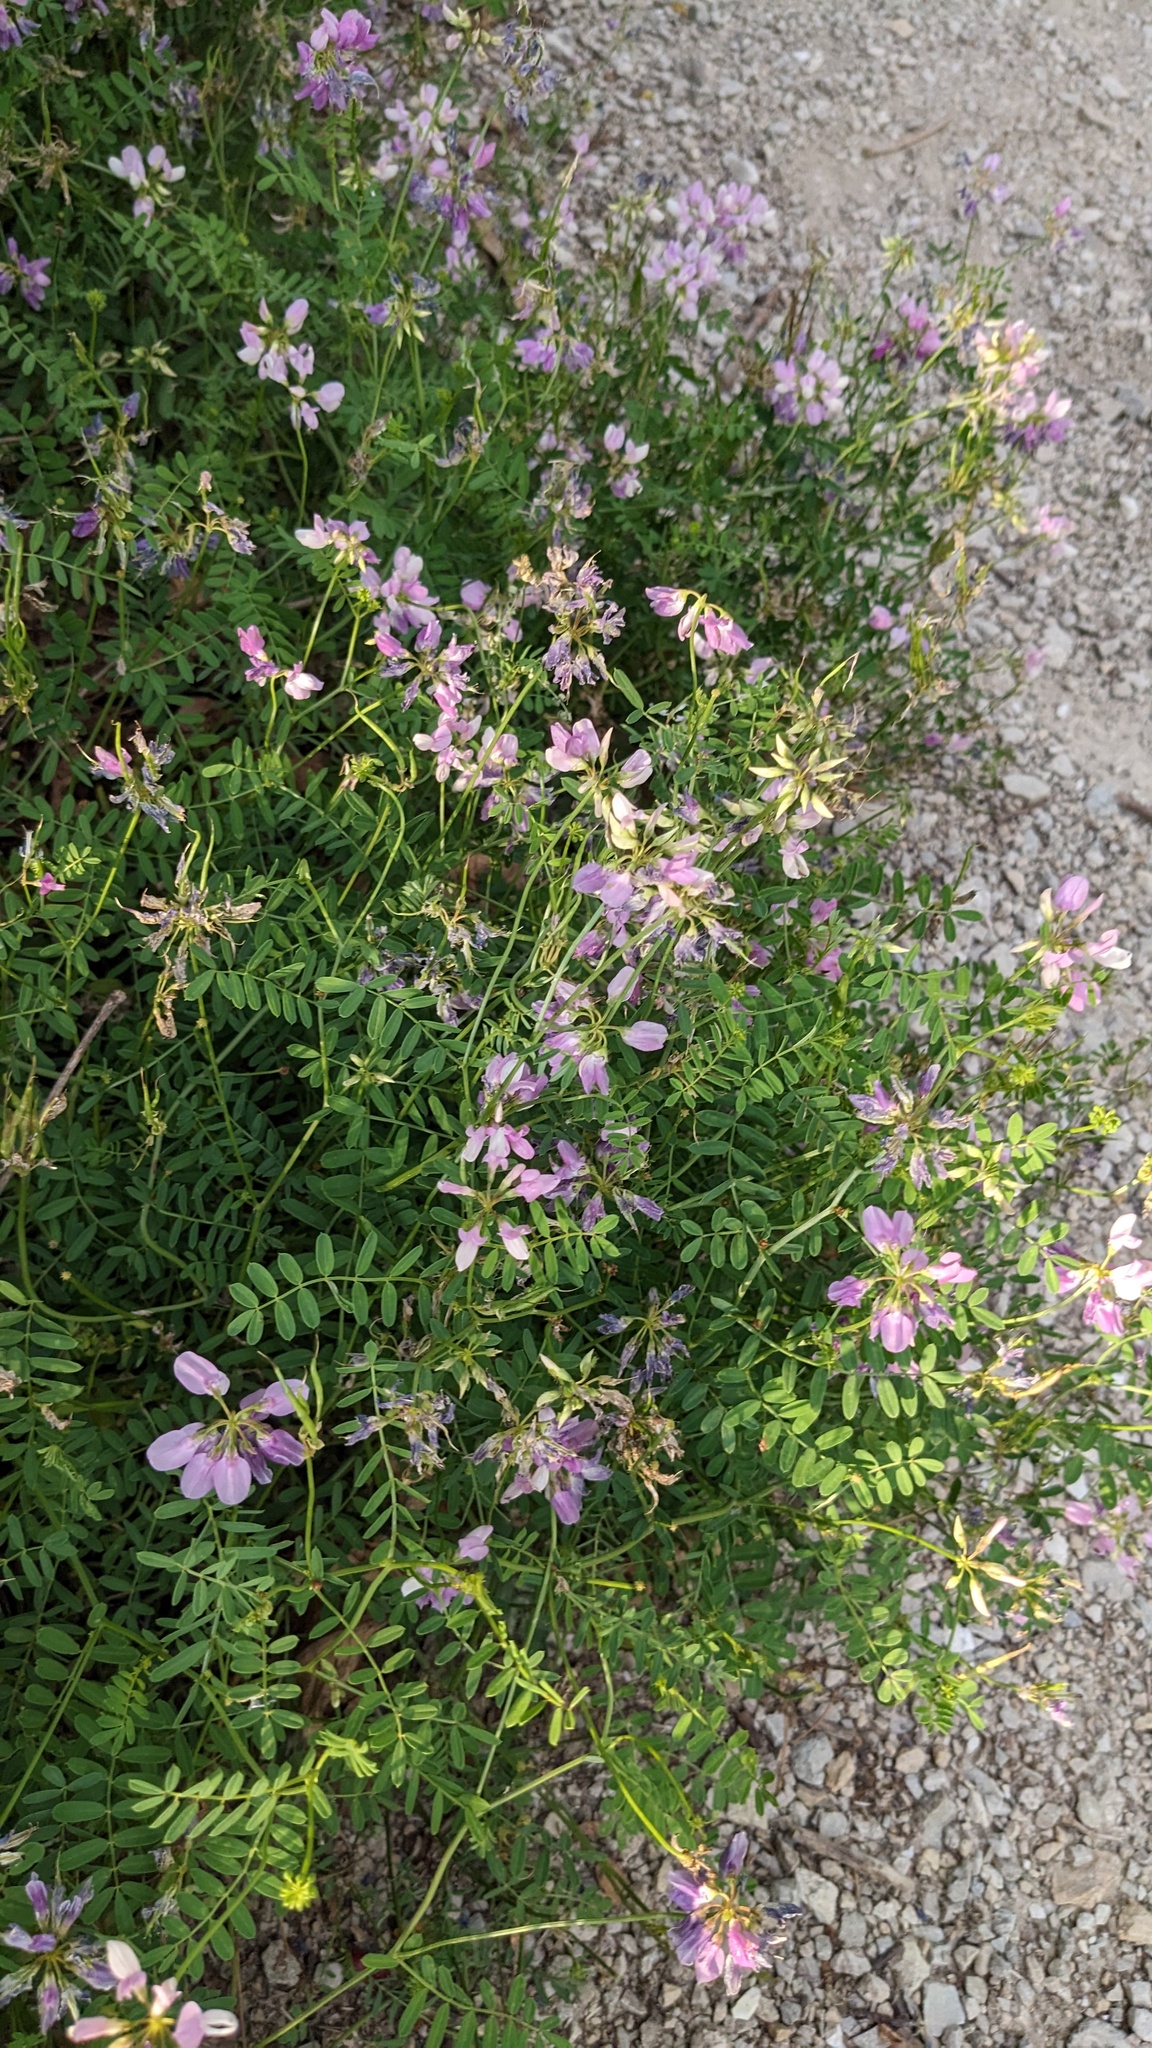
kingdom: Plantae
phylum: Tracheophyta
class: Magnoliopsida
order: Fabales
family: Fabaceae
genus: Coronilla
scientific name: Coronilla varia
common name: Crownvetch
